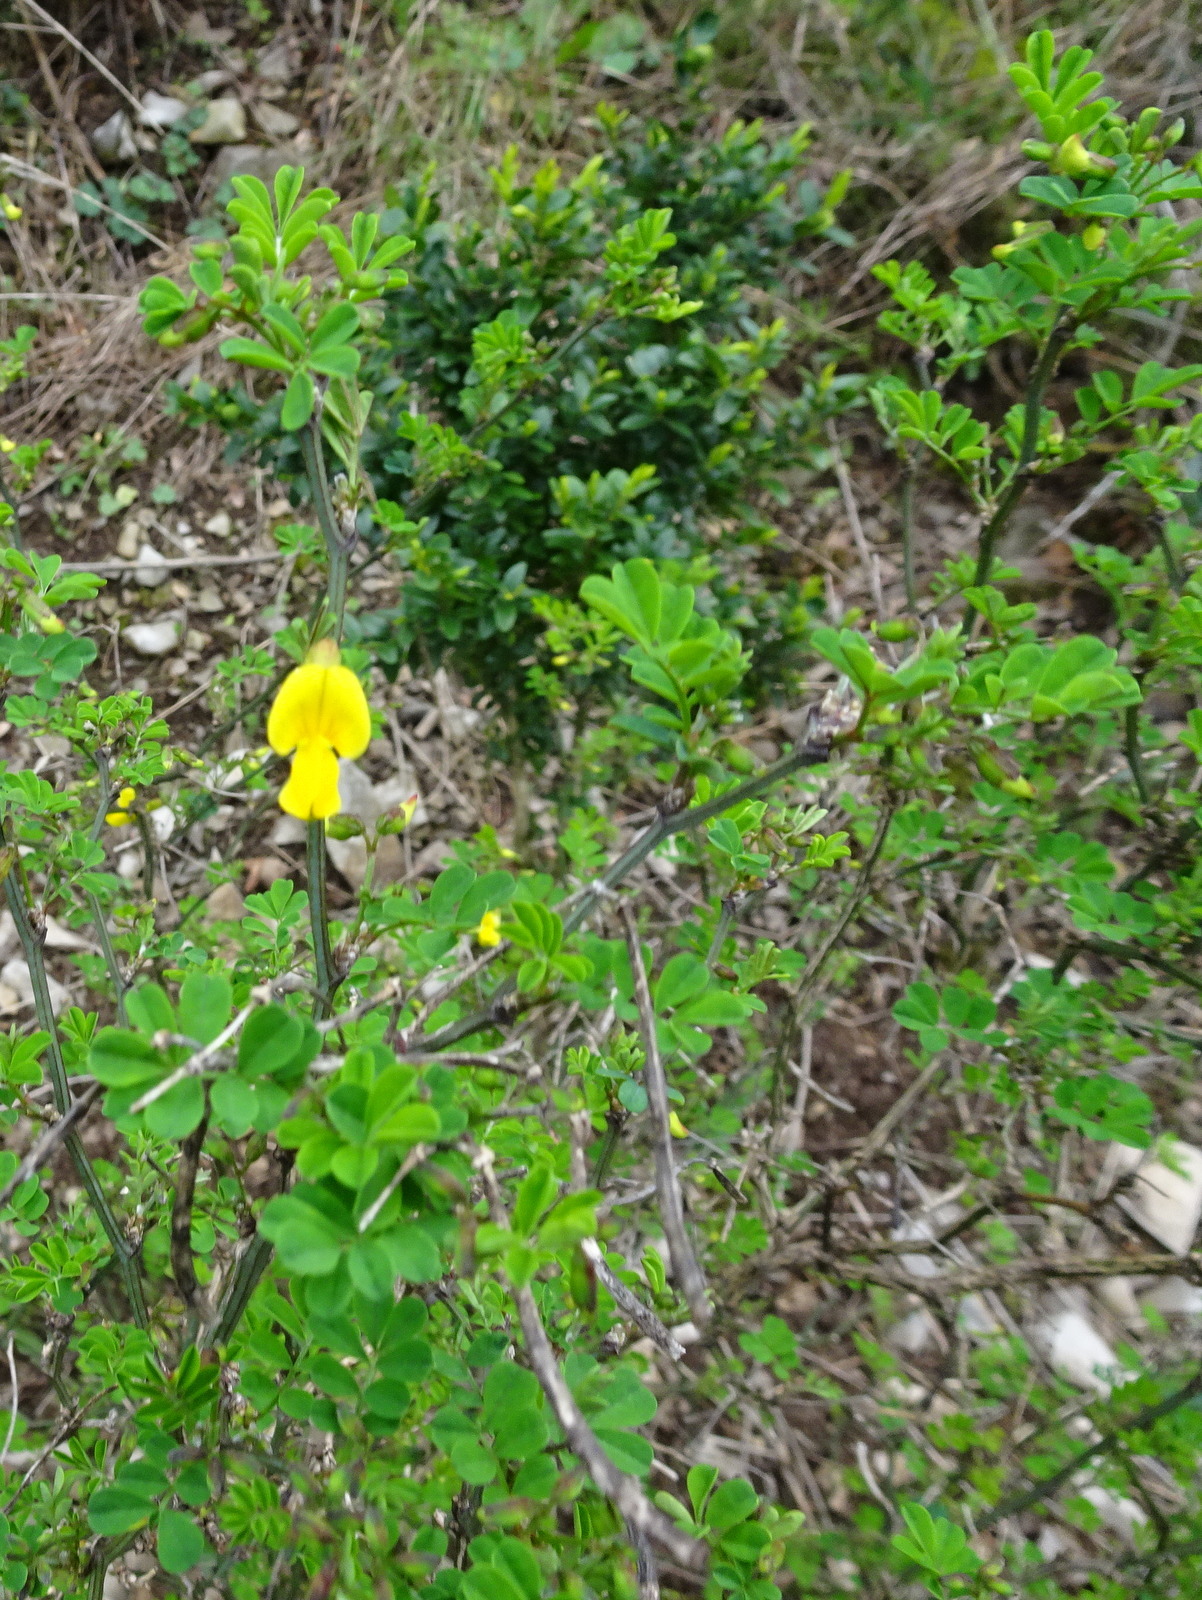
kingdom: Plantae
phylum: Tracheophyta
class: Magnoliopsida
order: Fabales
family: Fabaceae
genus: Hippocrepis
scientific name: Hippocrepis emerus
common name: Scorpion senna
